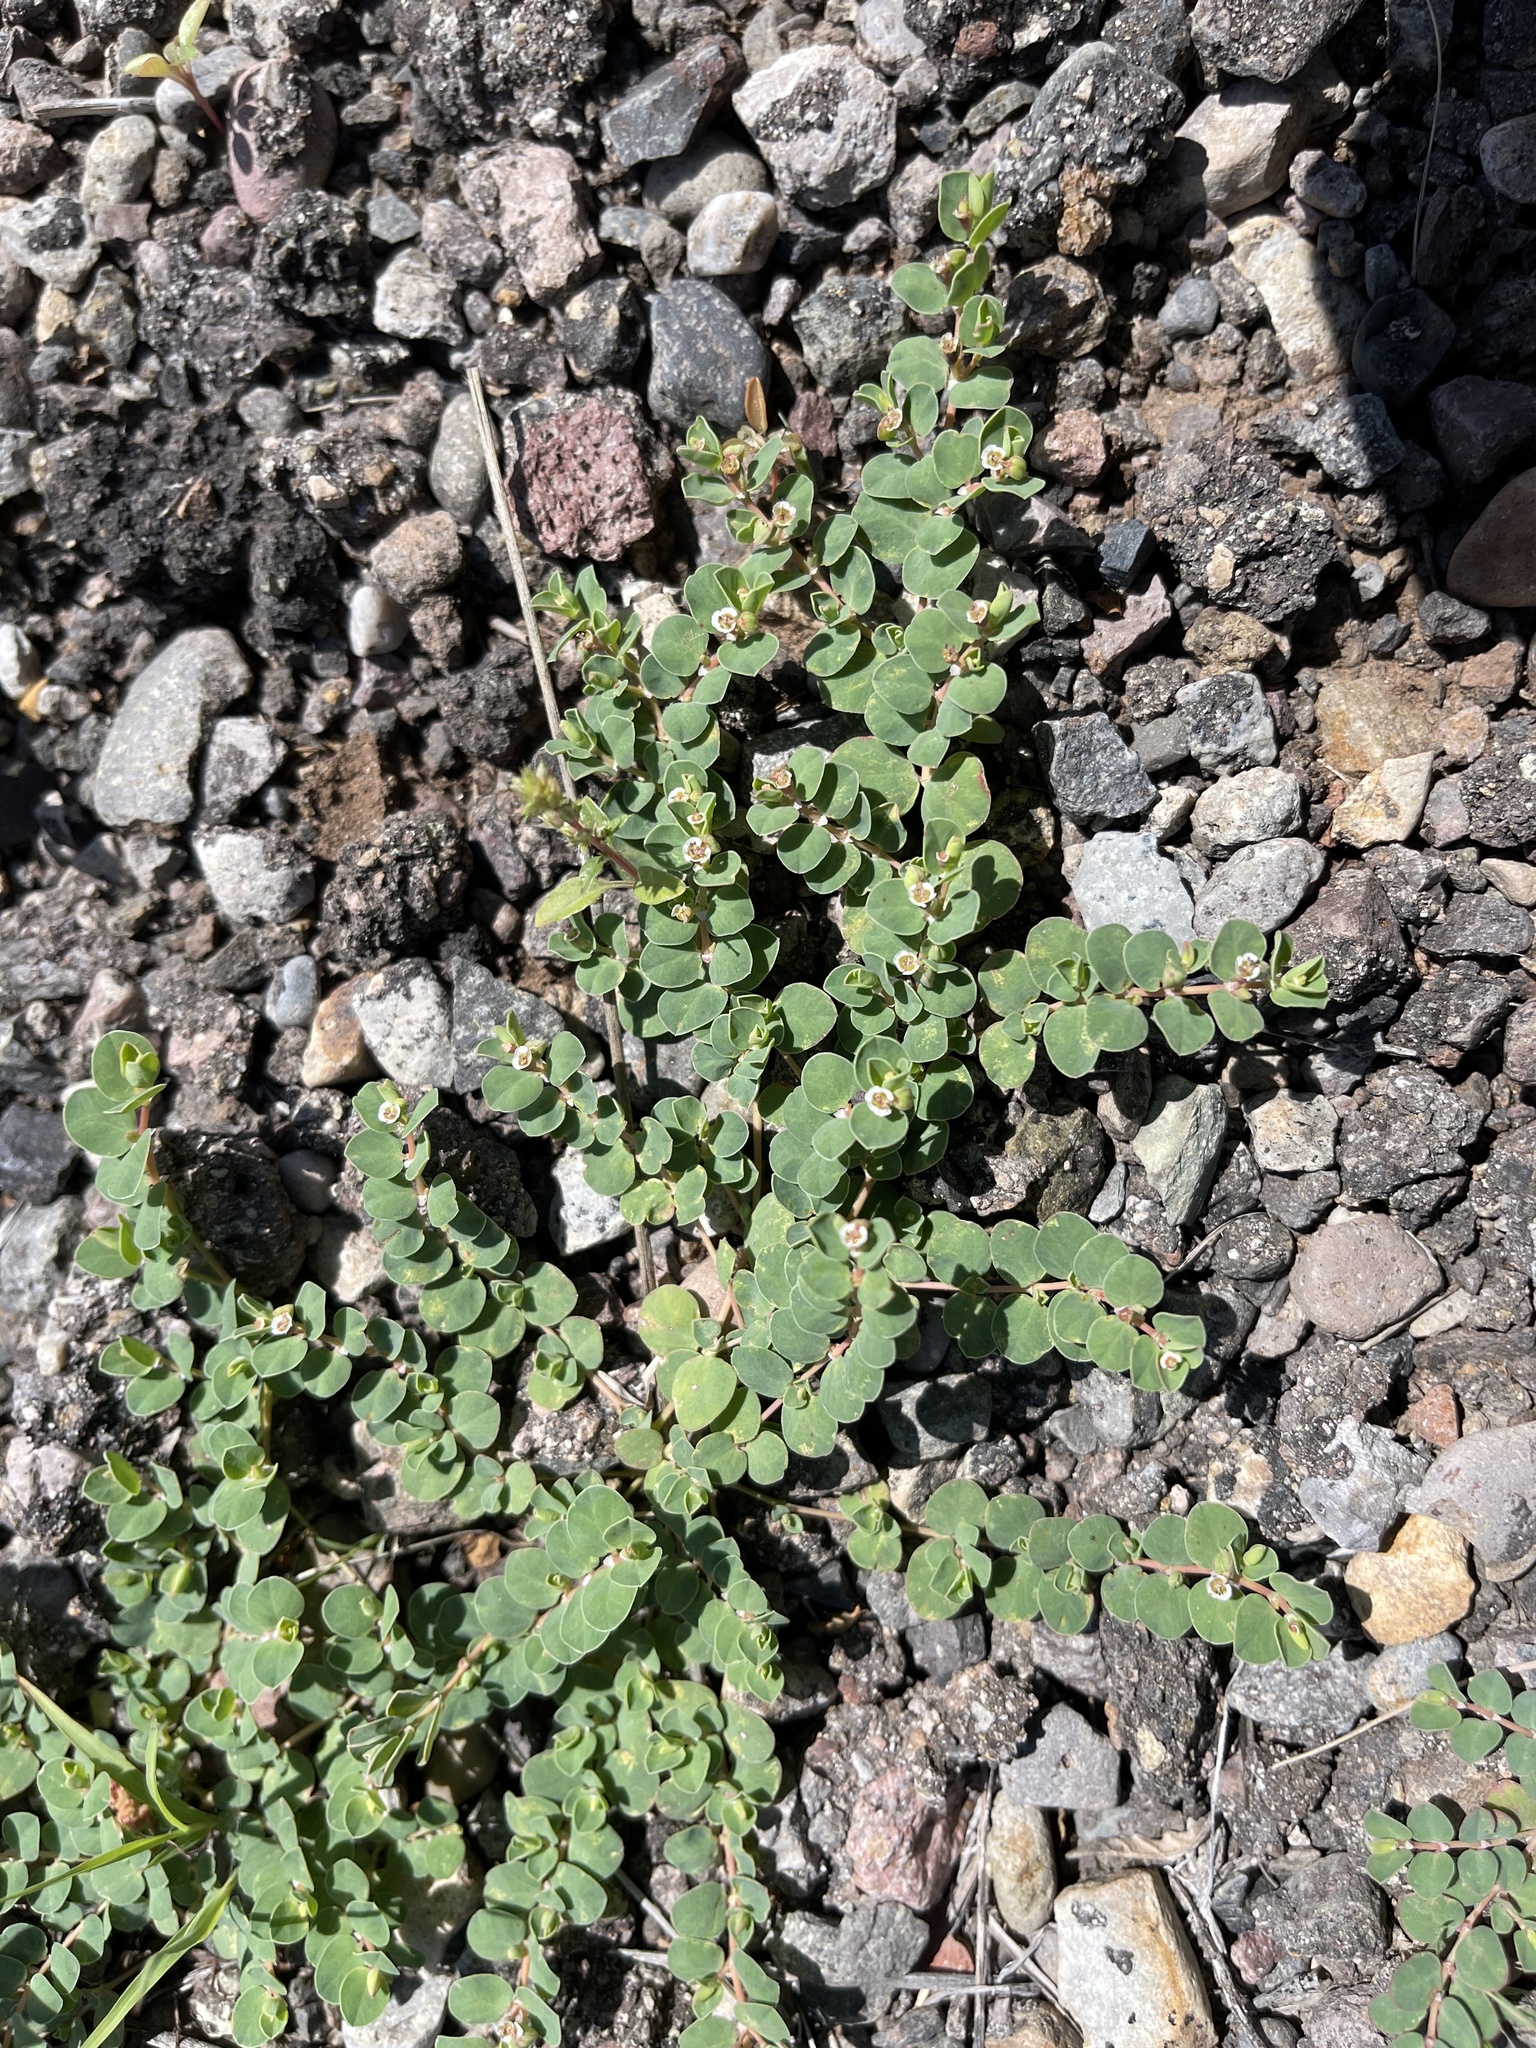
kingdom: Plantae
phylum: Tracheophyta
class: Magnoliopsida
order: Malpighiales
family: Euphorbiaceae
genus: Euphorbia
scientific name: Euphorbia albomarginata
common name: Whitemargin sandmat
